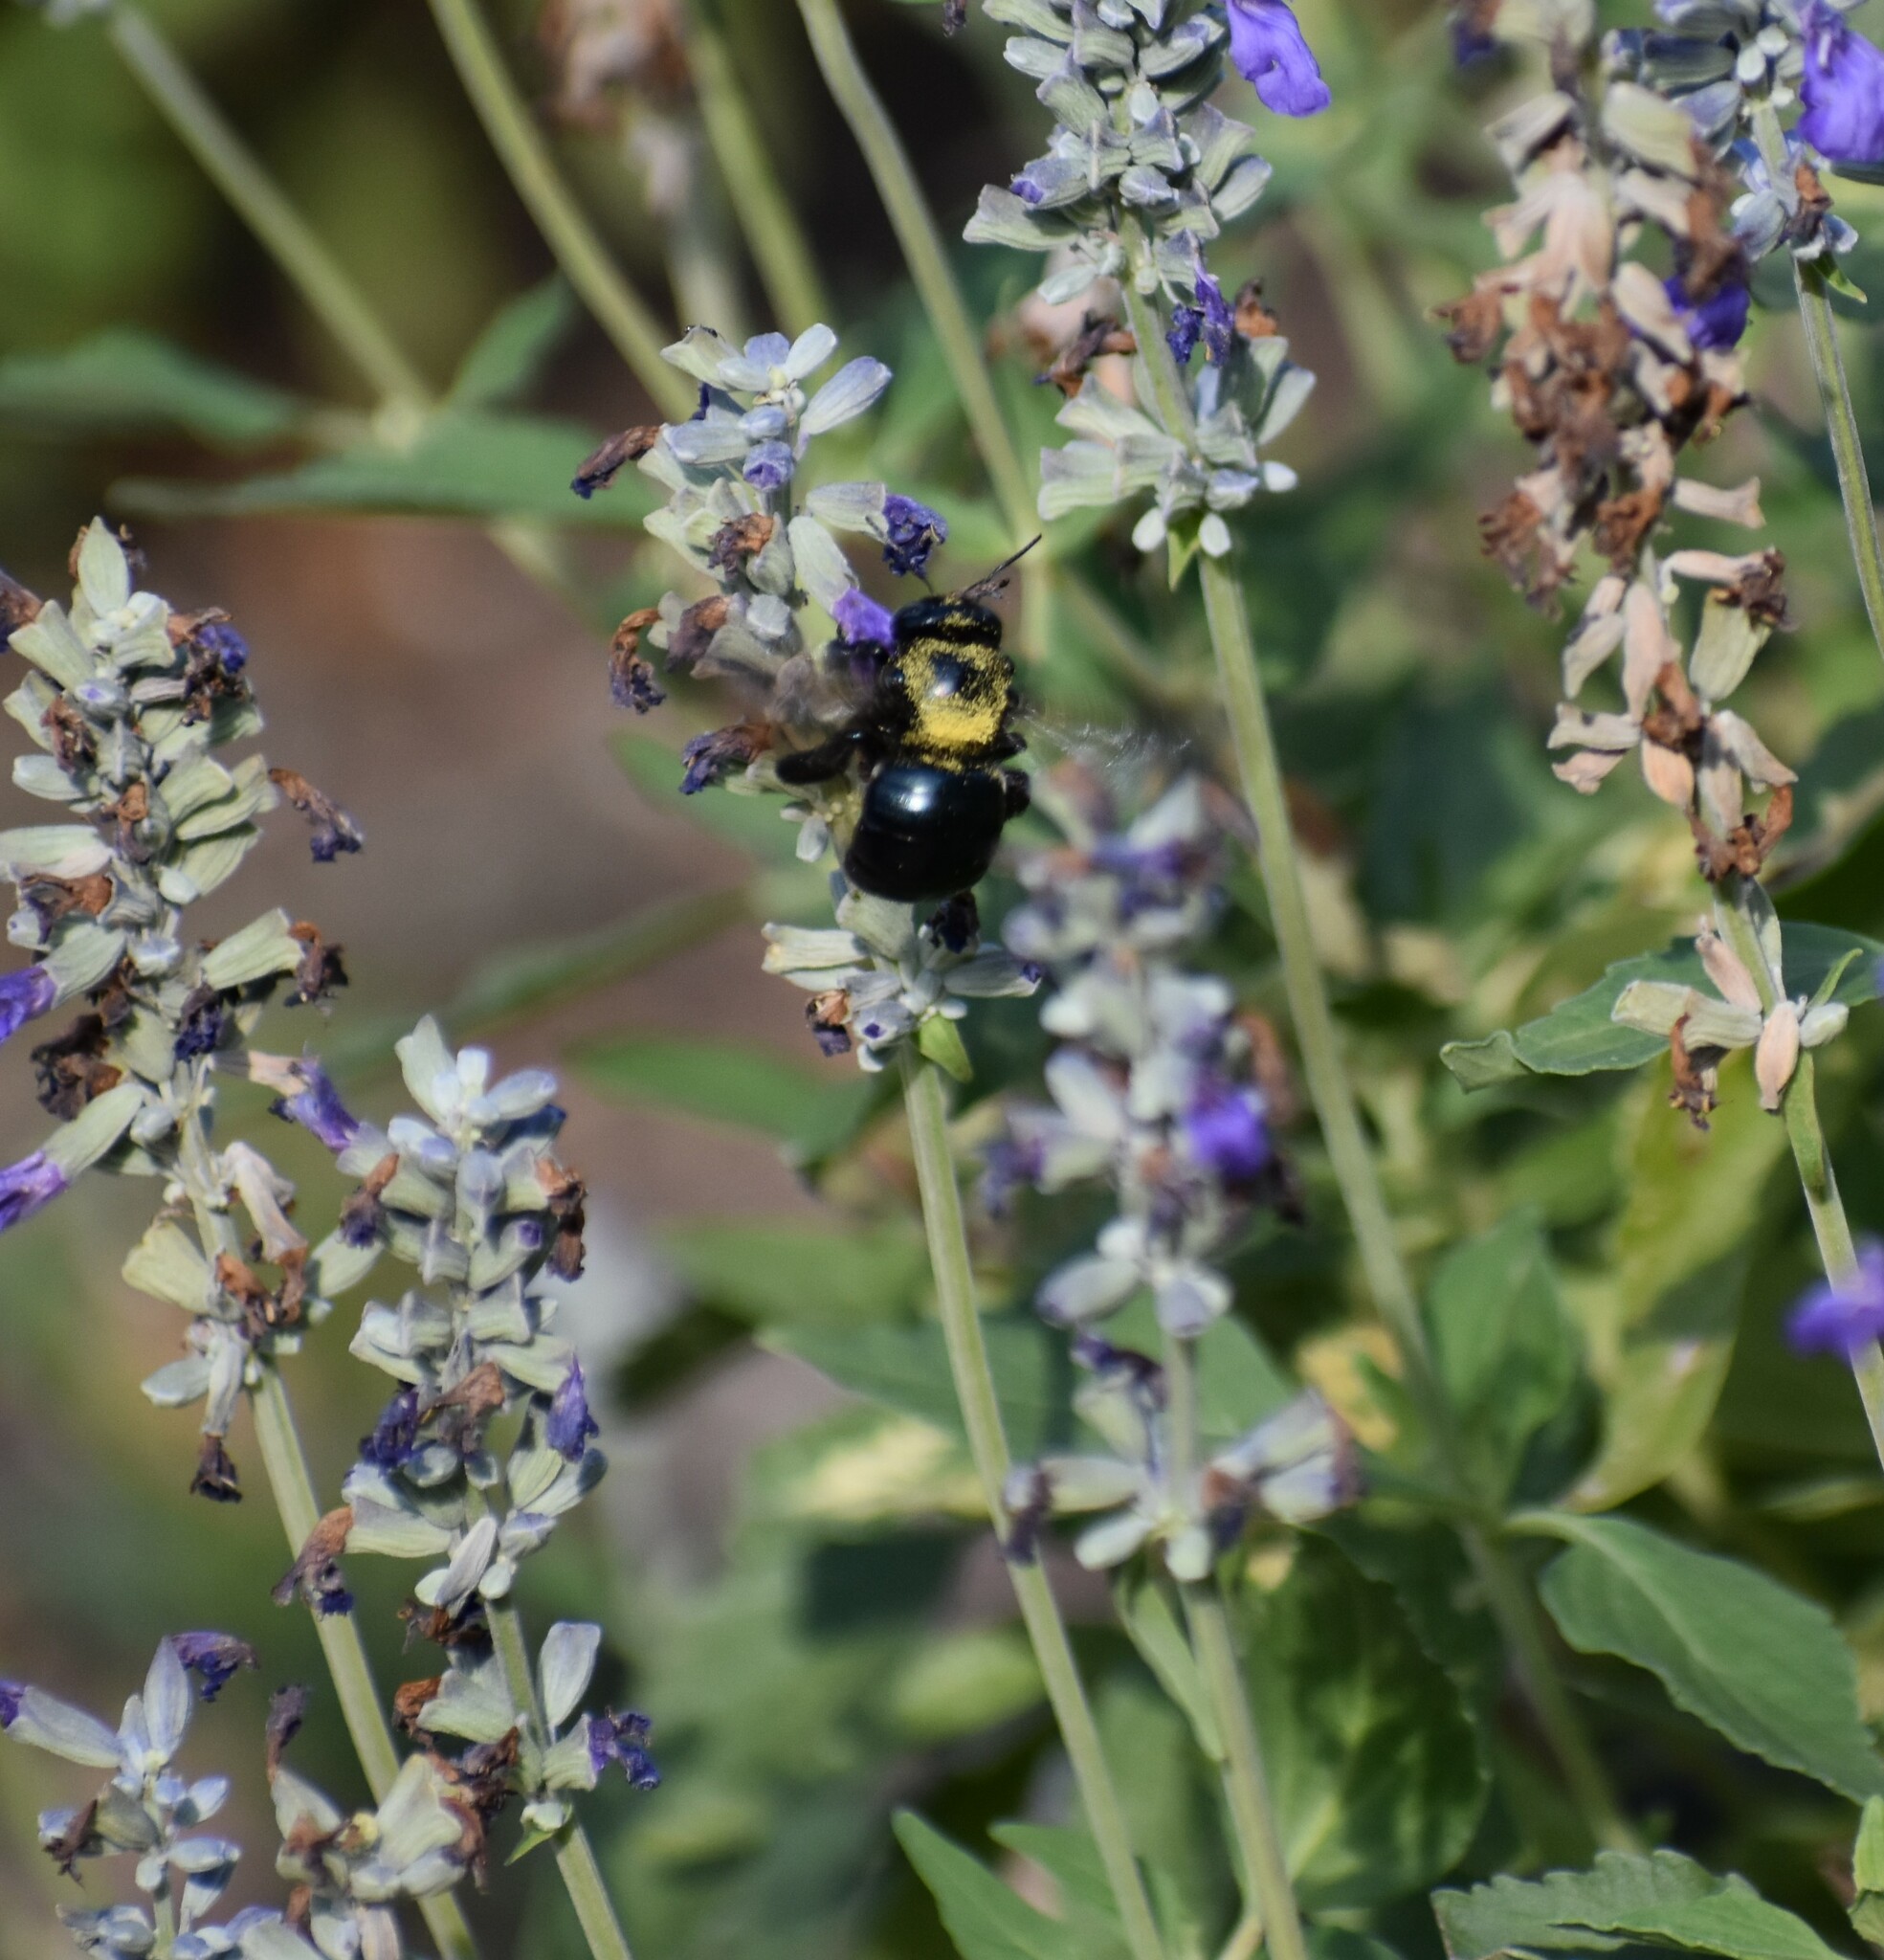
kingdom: Animalia
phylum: Arthropoda
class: Insecta
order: Hymenoptera
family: Apidae
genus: Xylocopa
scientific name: Xylocopa micans
